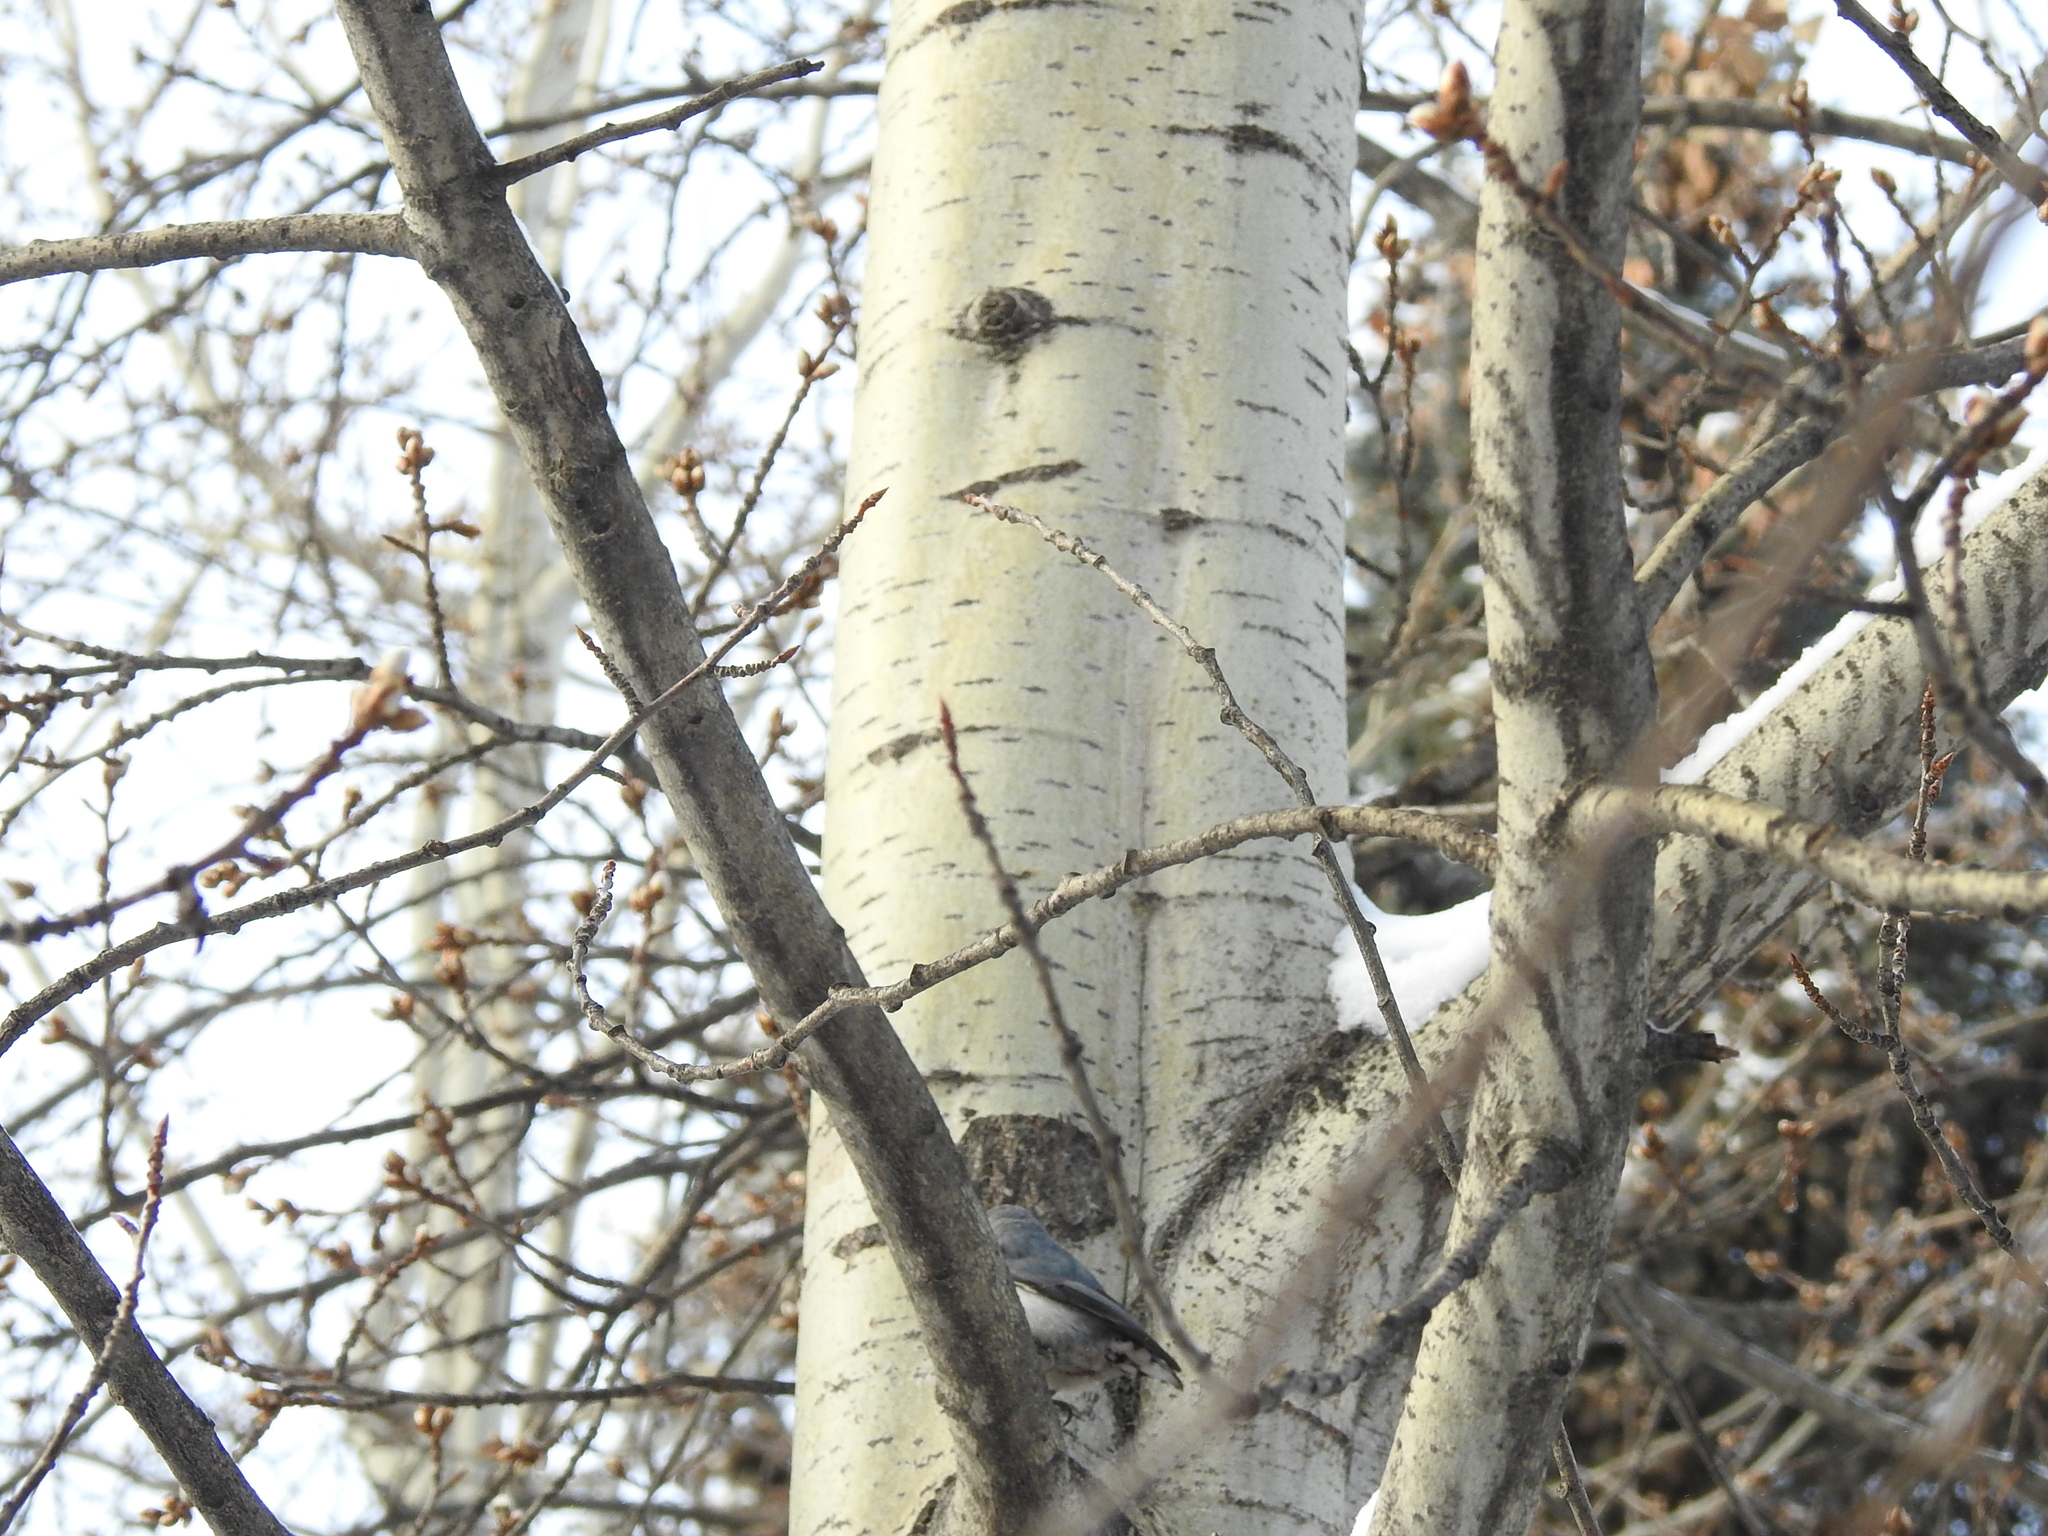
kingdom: Animalia
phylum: Chordata
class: Aves
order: Passeriformes
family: Sittidae
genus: Sitta
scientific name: Sitta europaea
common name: Eurasian nuthatch
